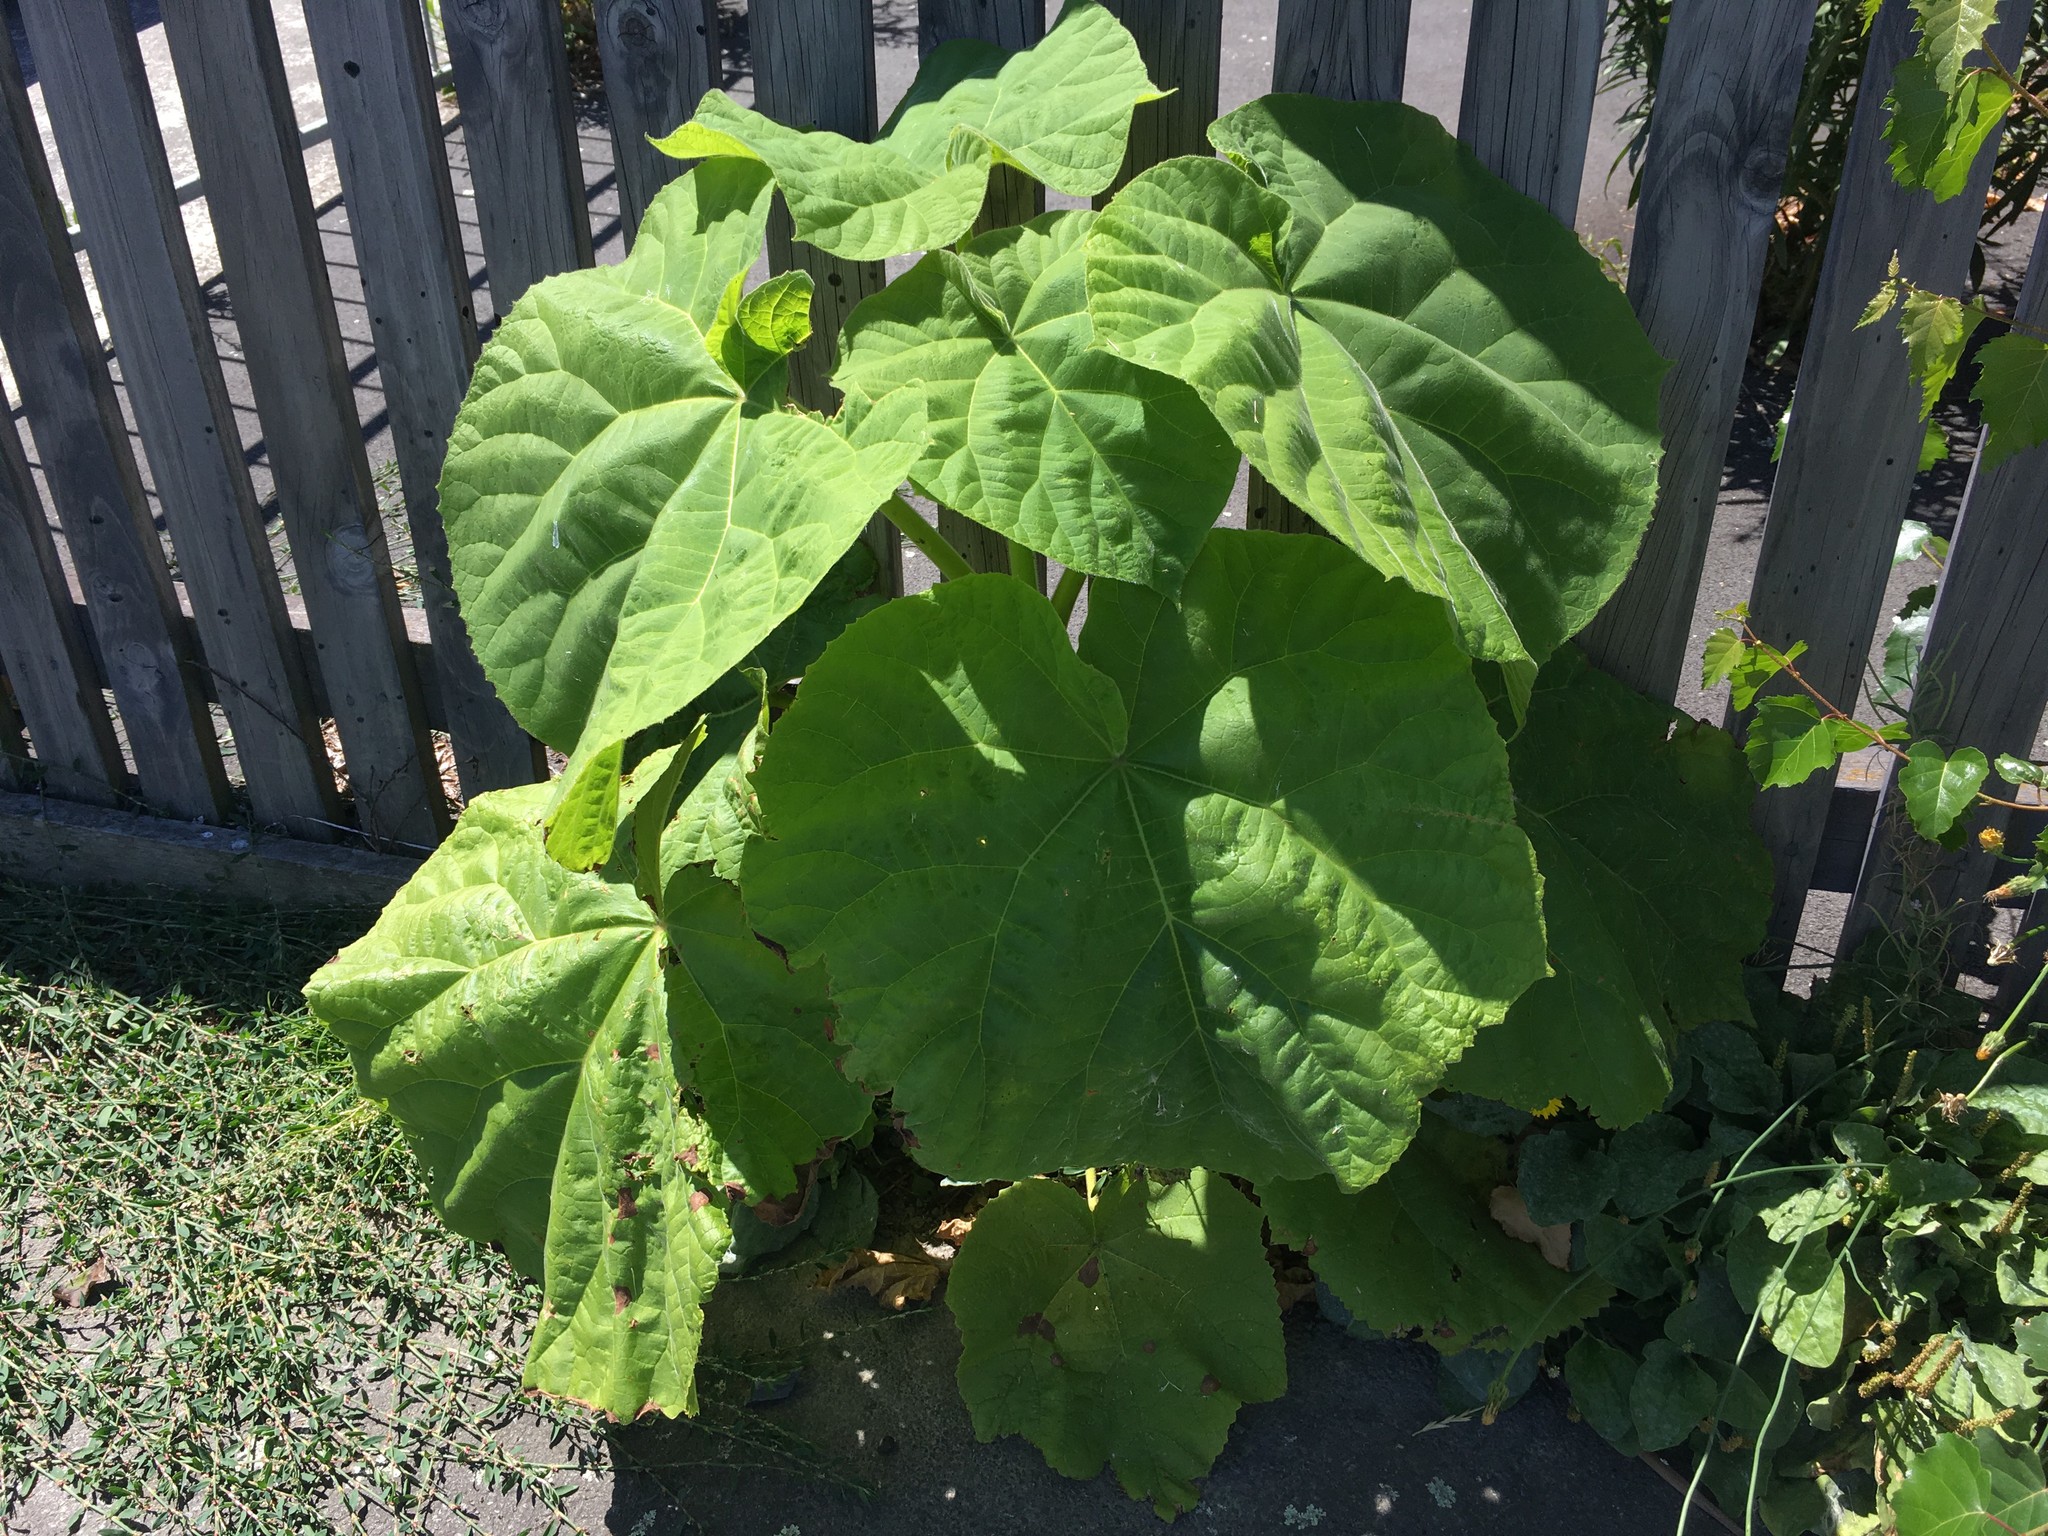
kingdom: Plantae
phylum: Tracheophyta
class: Magnoliopsida
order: Lamiales
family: Paulowniaceae
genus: Paulownia
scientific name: Paulownia tomentosa
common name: Foxglove-tree
